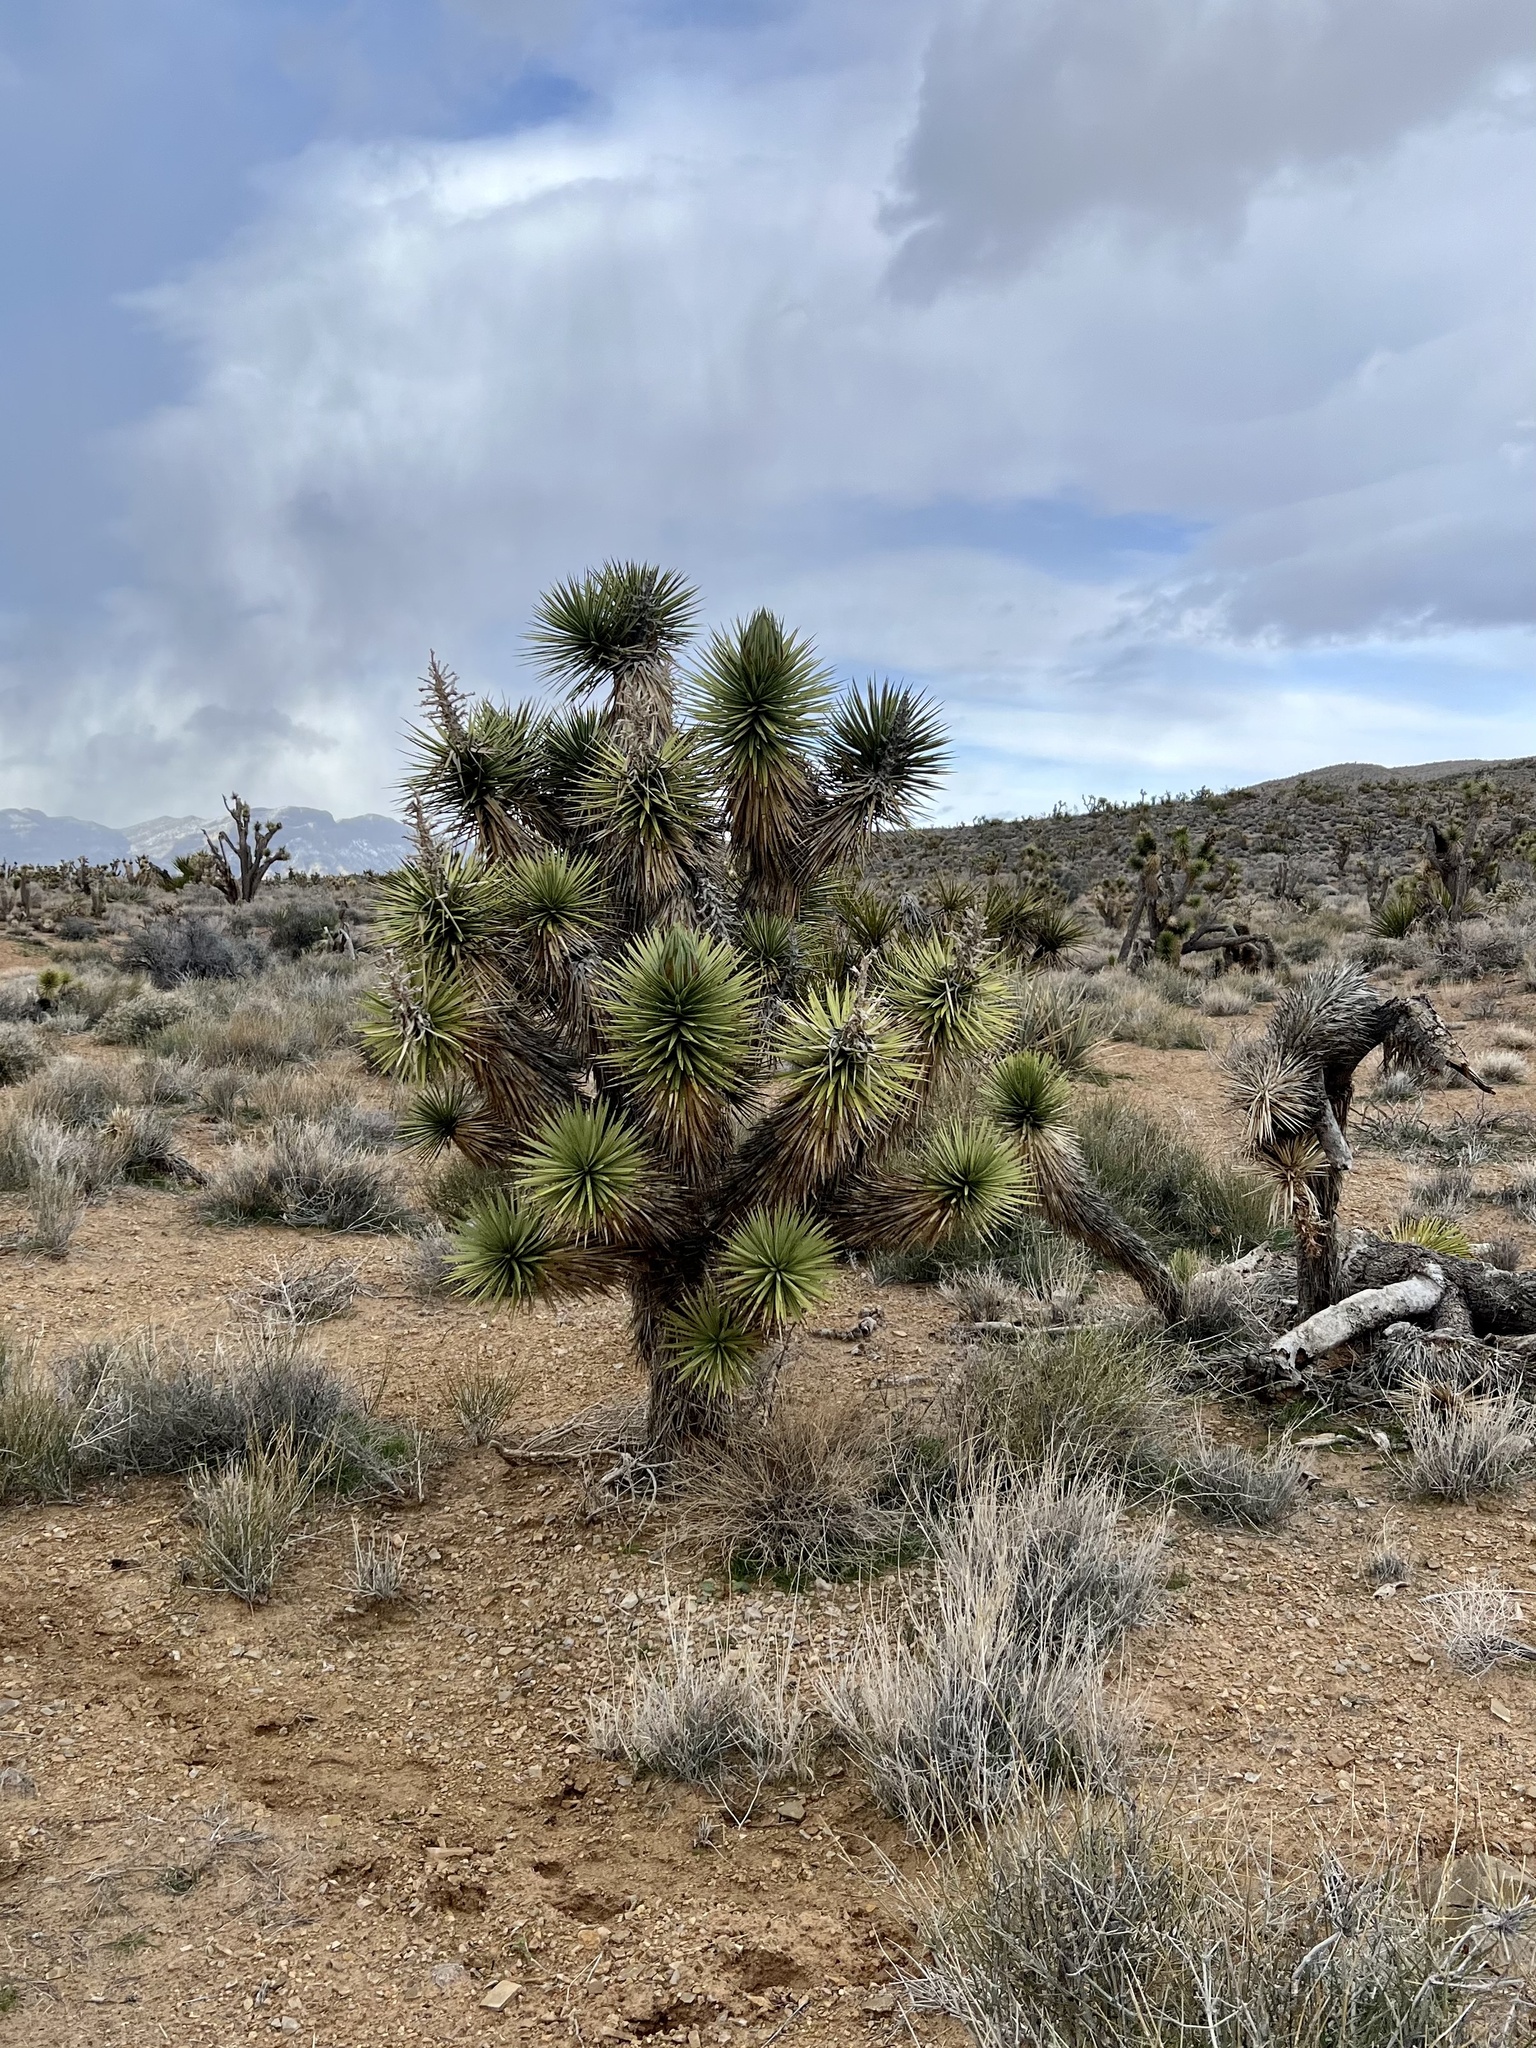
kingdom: Plantae
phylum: Tracheophyta
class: Liliopsida
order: Asparagales
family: Asparagaceae
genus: Yucca
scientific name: Yucca brevifolia
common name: Joshua tree
